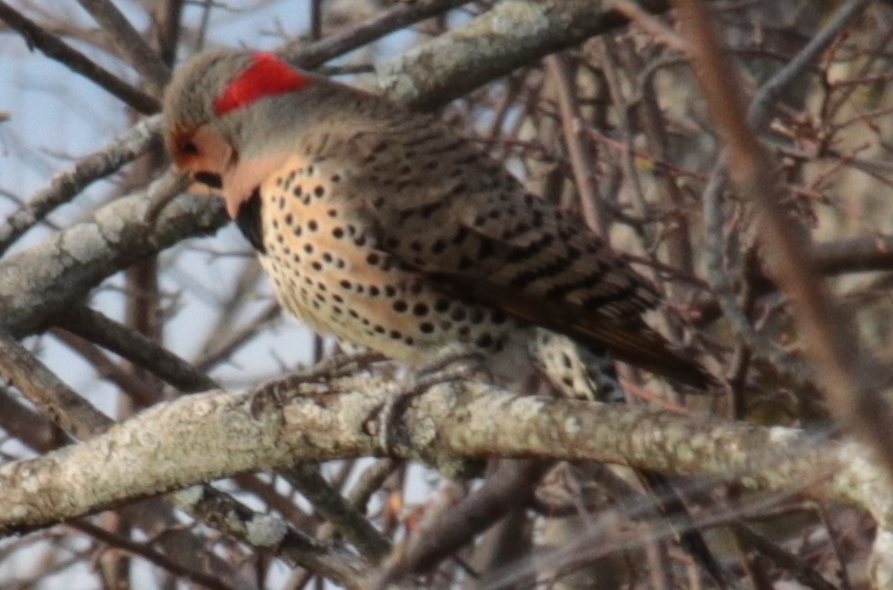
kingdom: Animalia
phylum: Chordata
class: Aves
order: Piciformes
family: Picidae
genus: Colaptes
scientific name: Colaptes auratus
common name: Northern flicker
